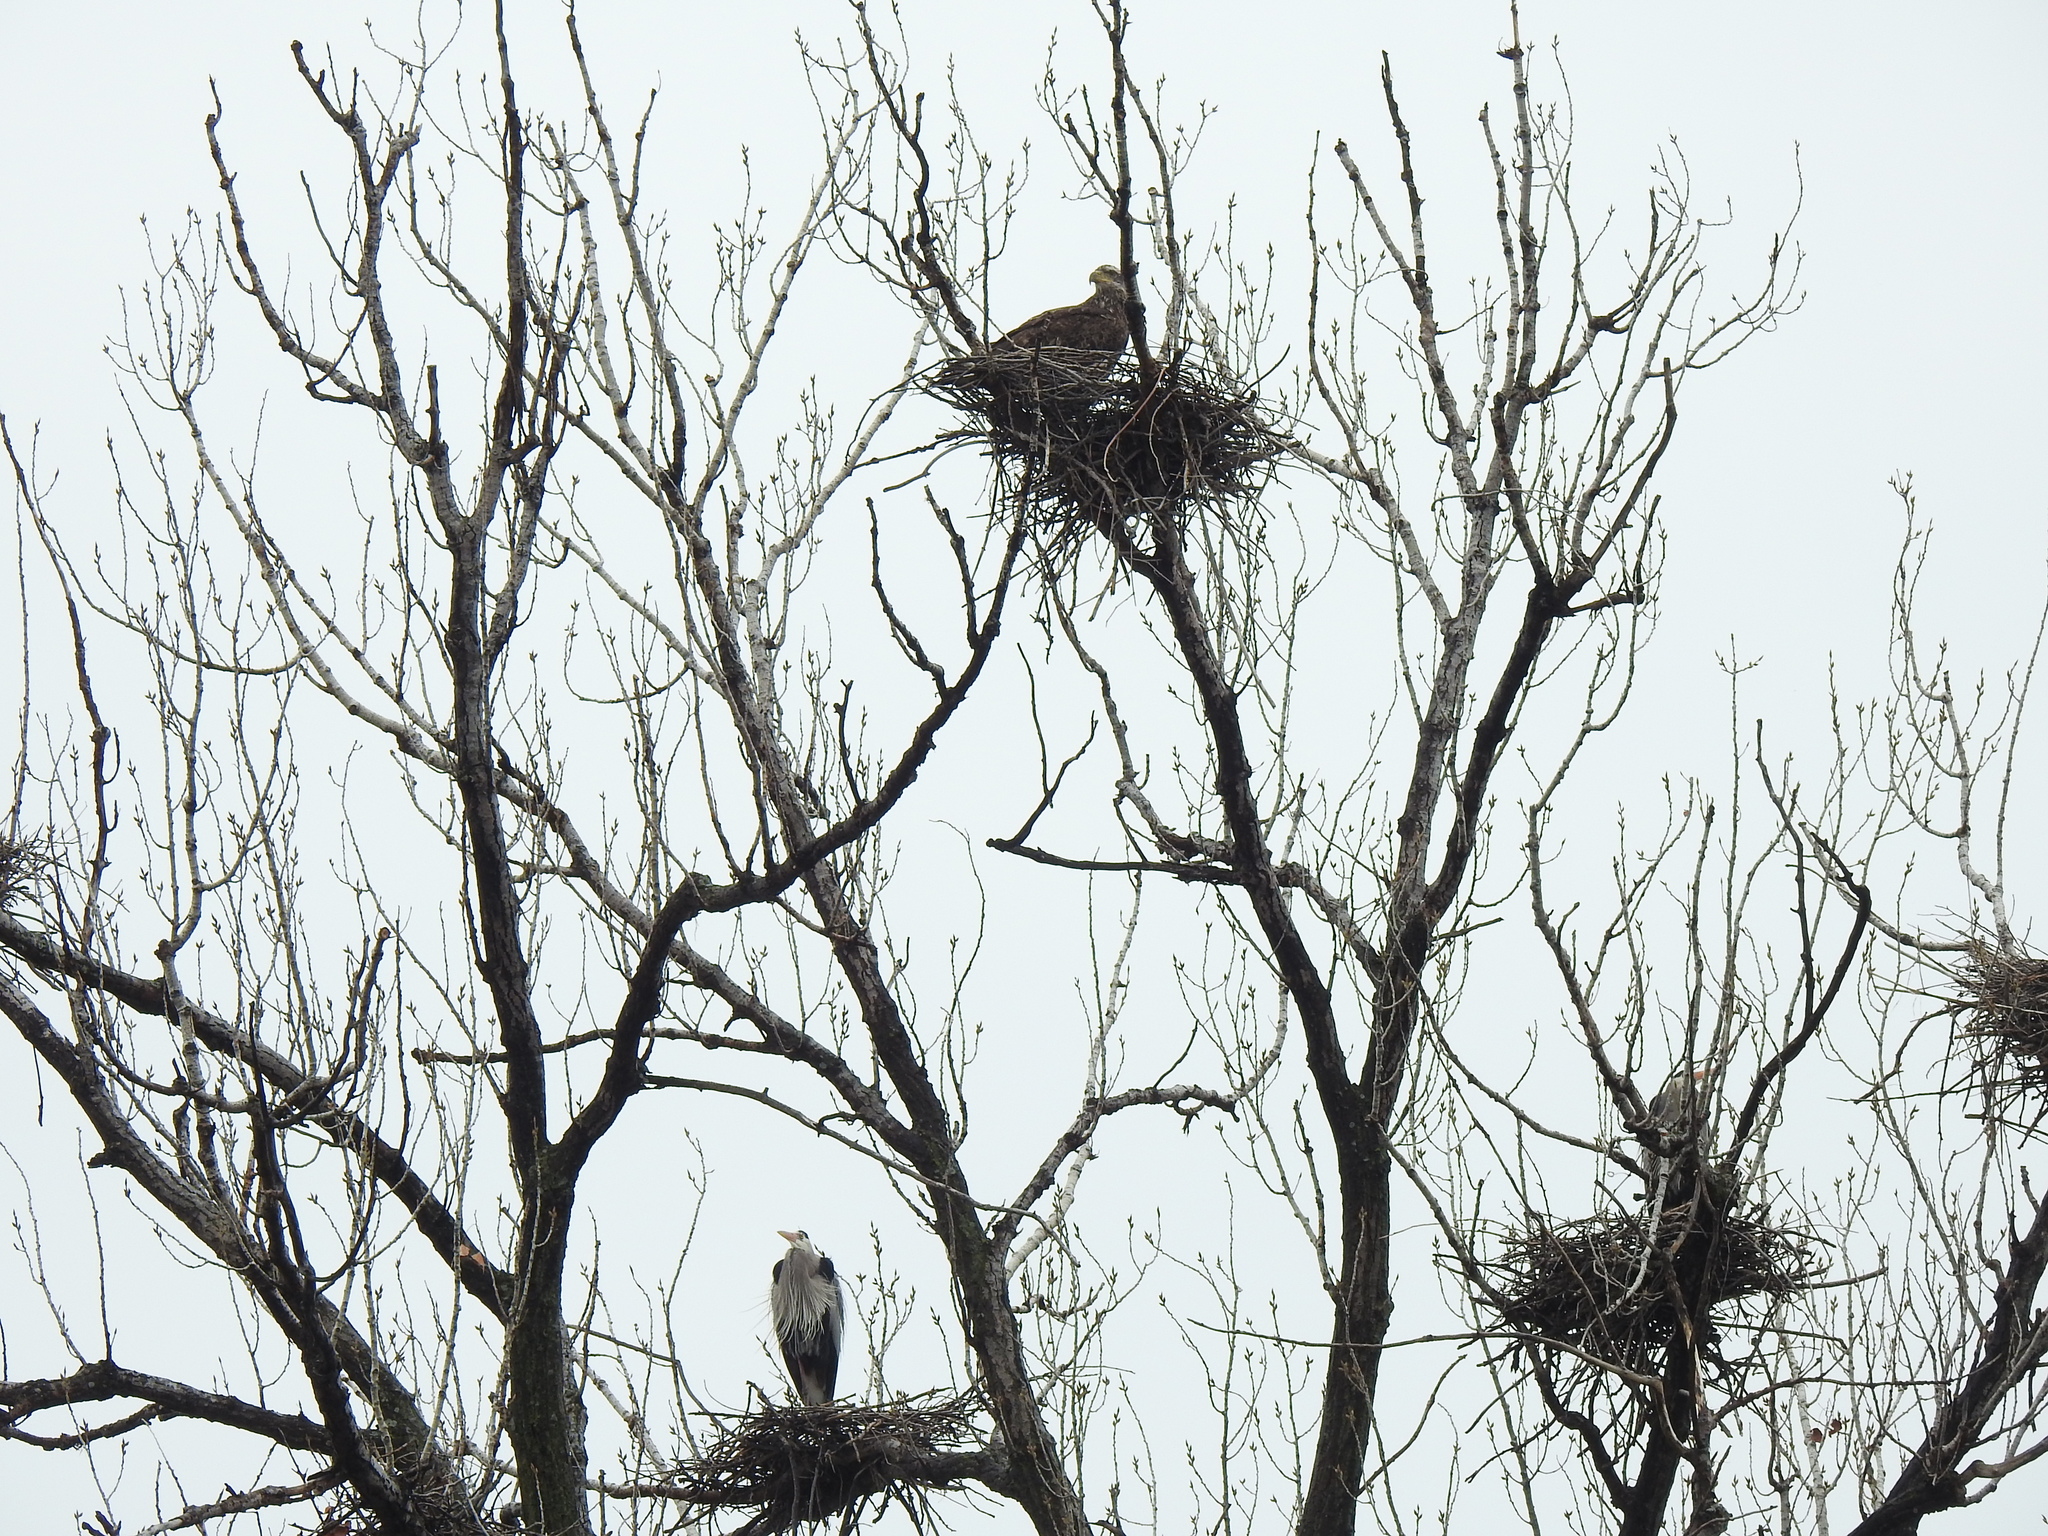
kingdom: Animalia
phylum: Chordata
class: Aves
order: Accipitriformes
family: Accipitridae
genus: Haliaeetus
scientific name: Haliaeetus leucocephalus
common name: Bald eagle
